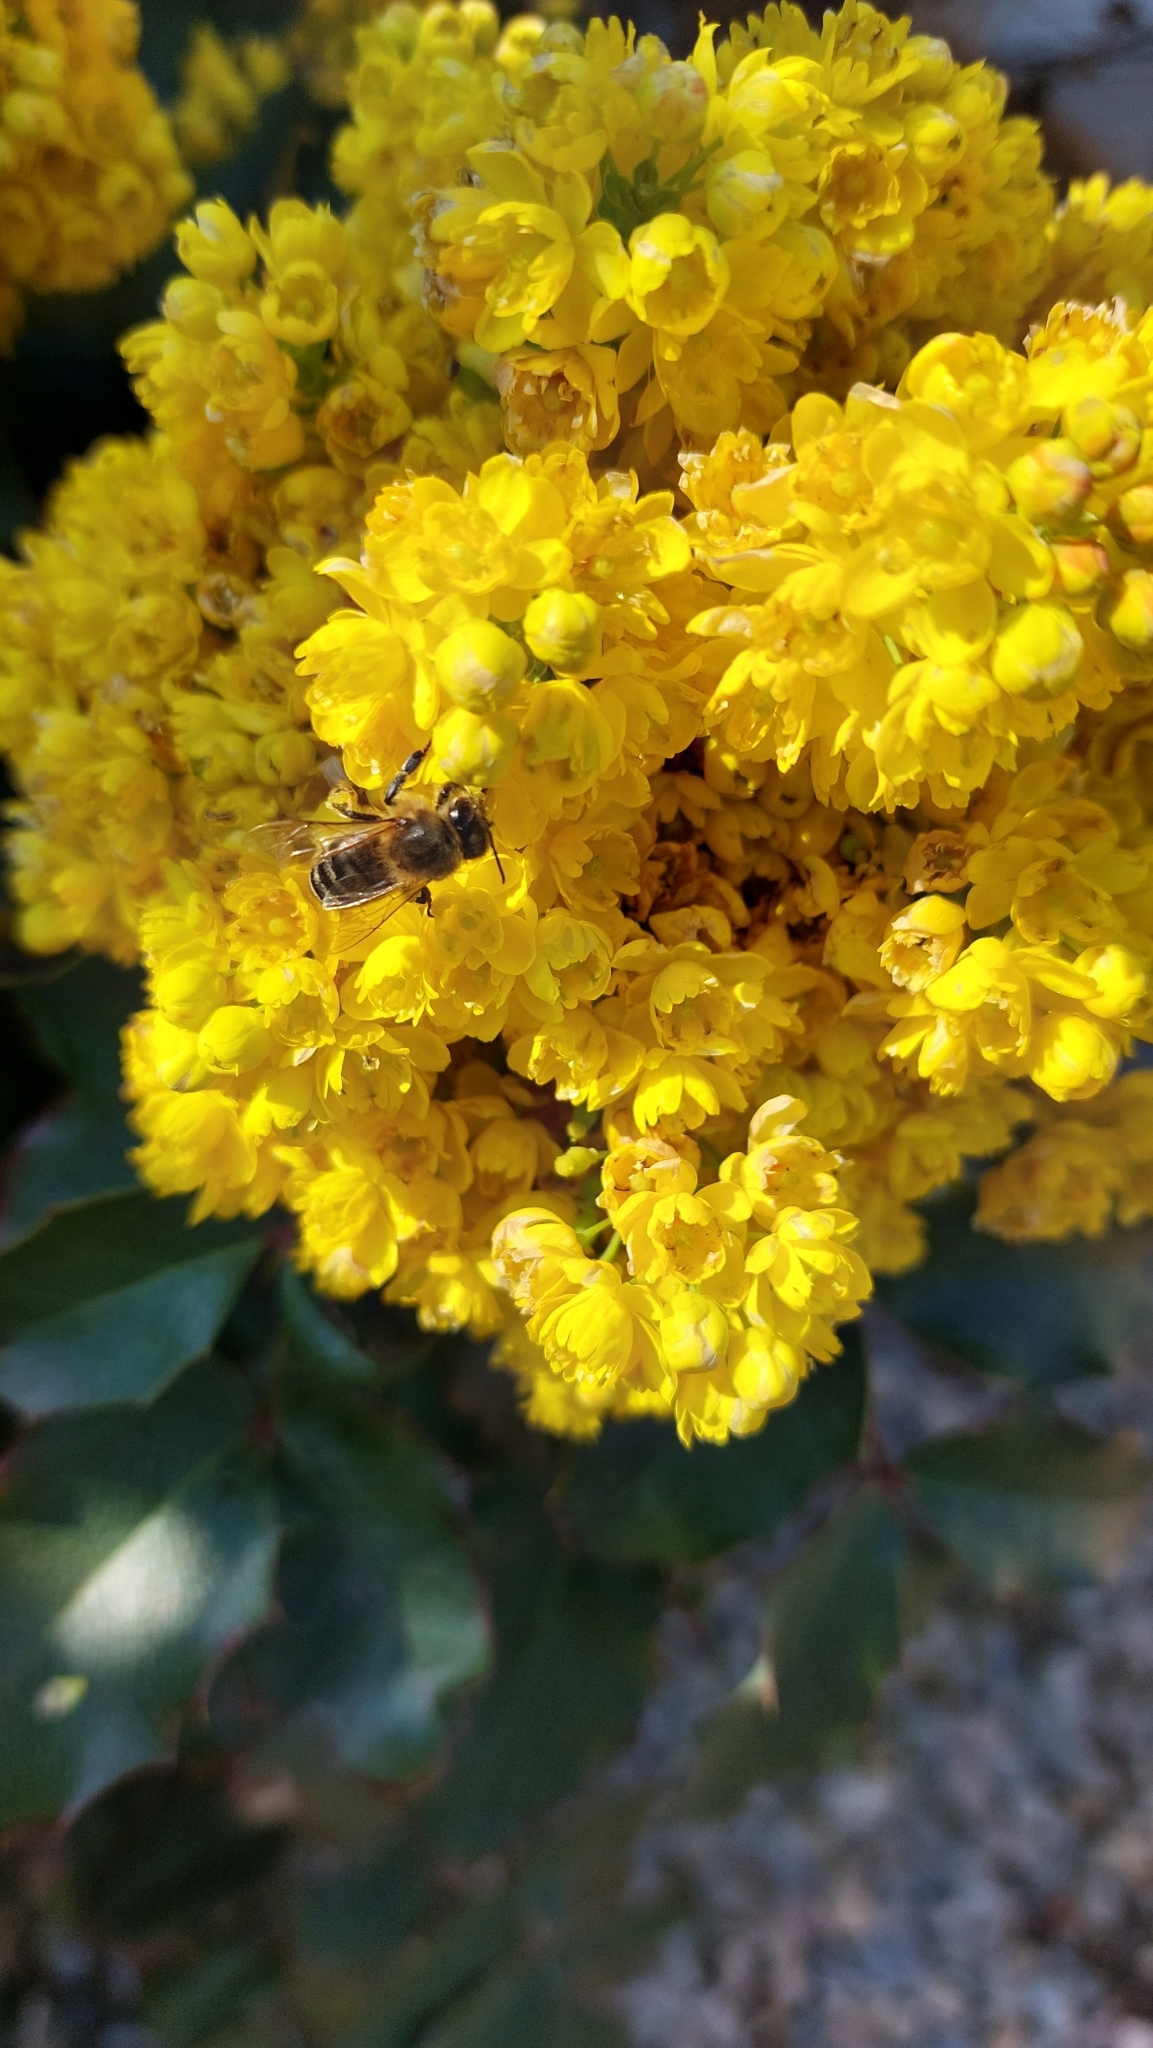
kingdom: Animalia
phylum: Arthropoda
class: Insecta
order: Hymenoptera
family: Apidae
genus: Apis
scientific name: Apis mellifera
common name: Honey bee
